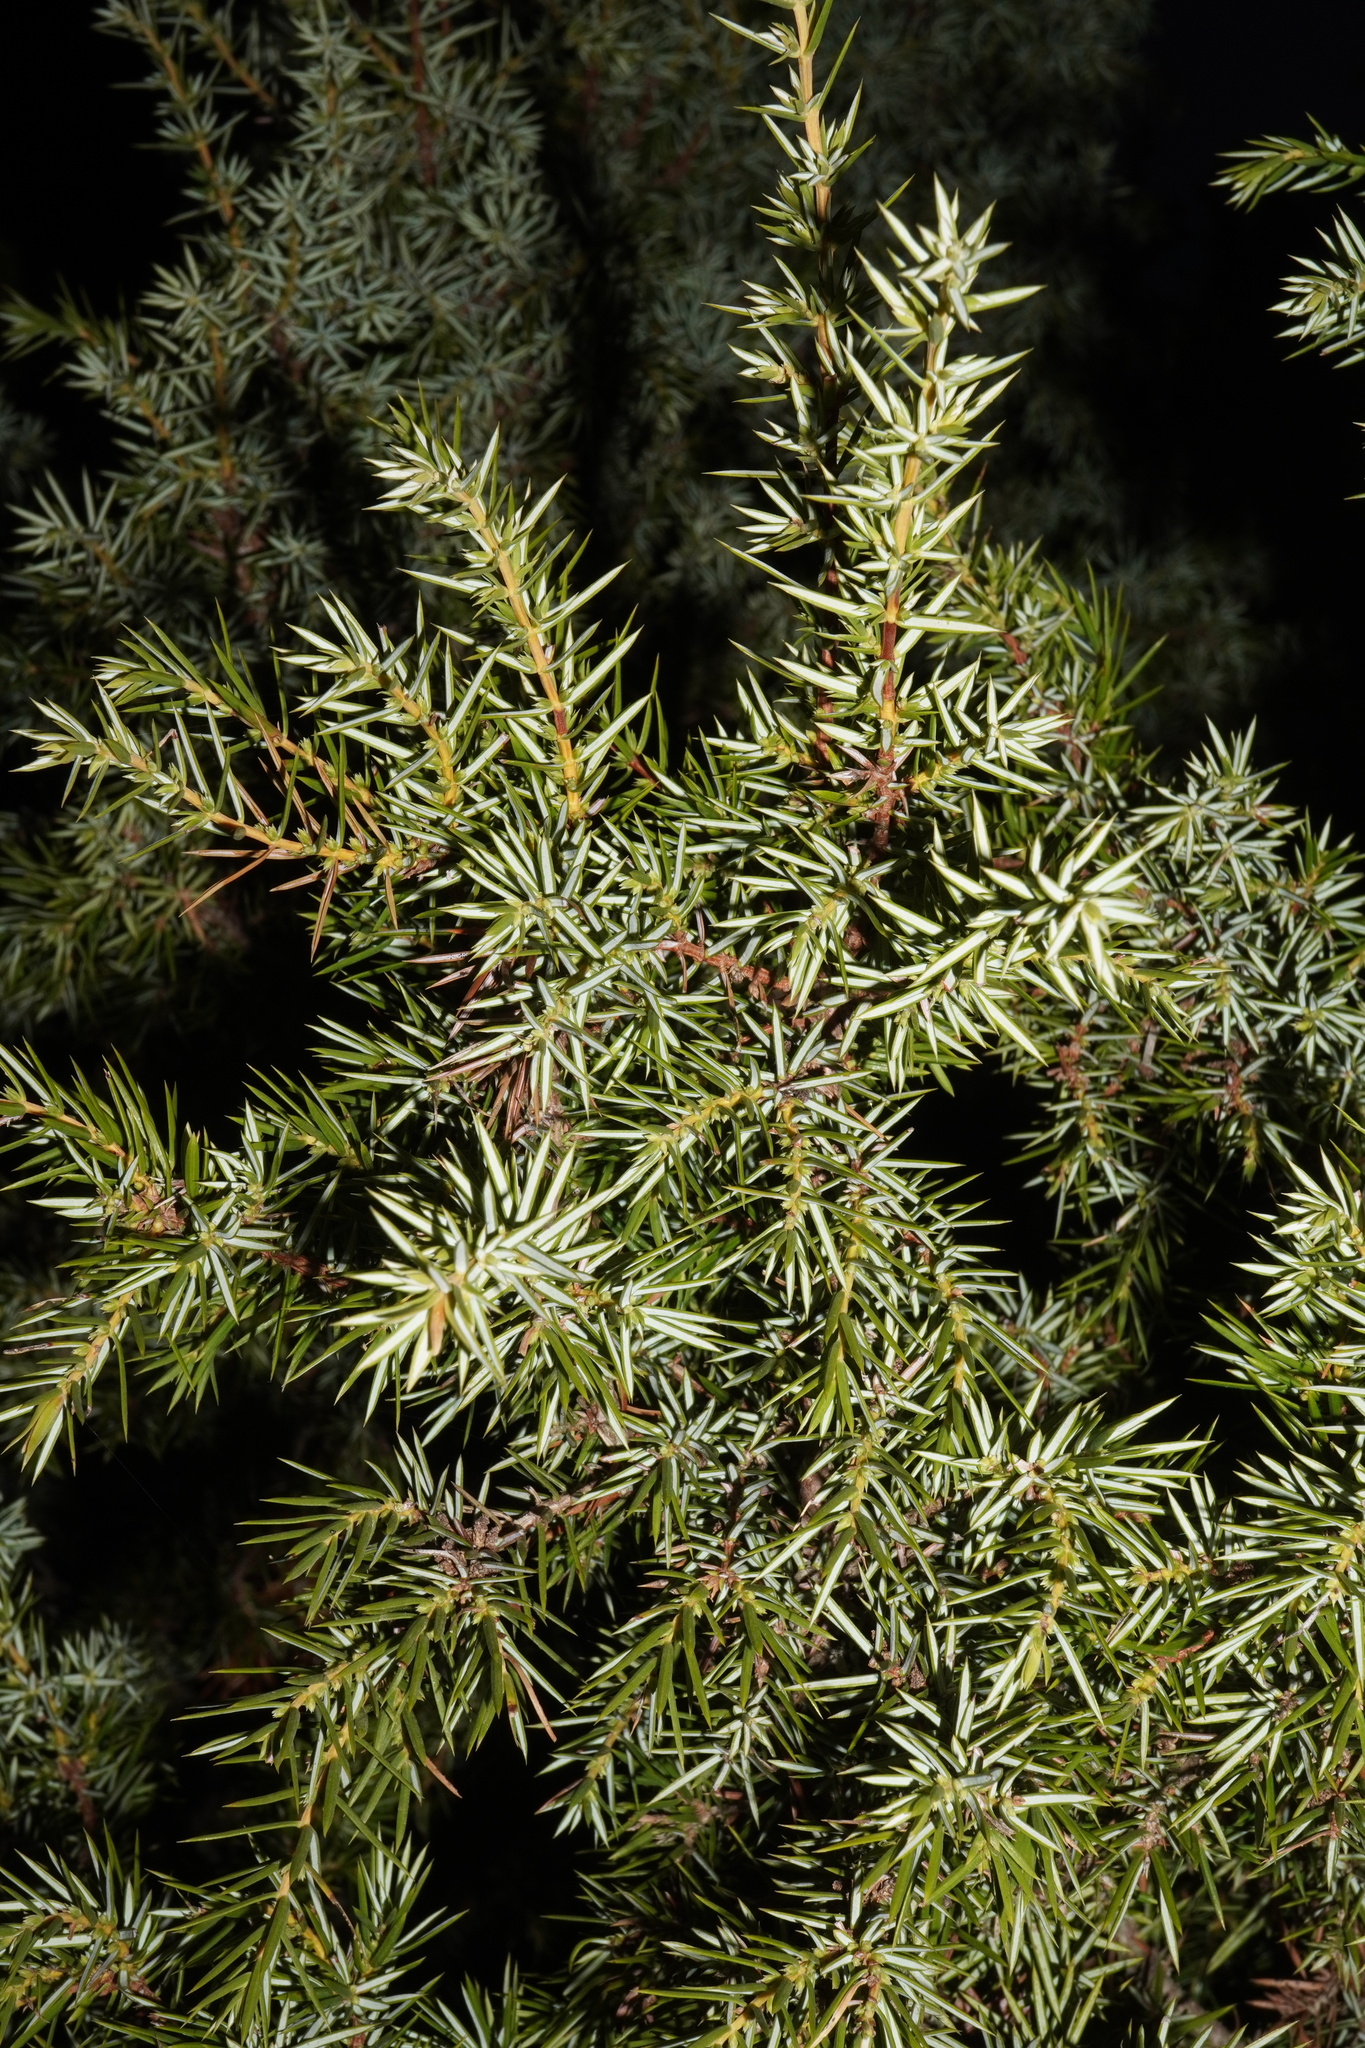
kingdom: Plantae
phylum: Tracheophyta
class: Pinopsida
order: Pinales
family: Cupressaceae
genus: Juniperus
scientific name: Juniperus communis
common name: Common juniper
